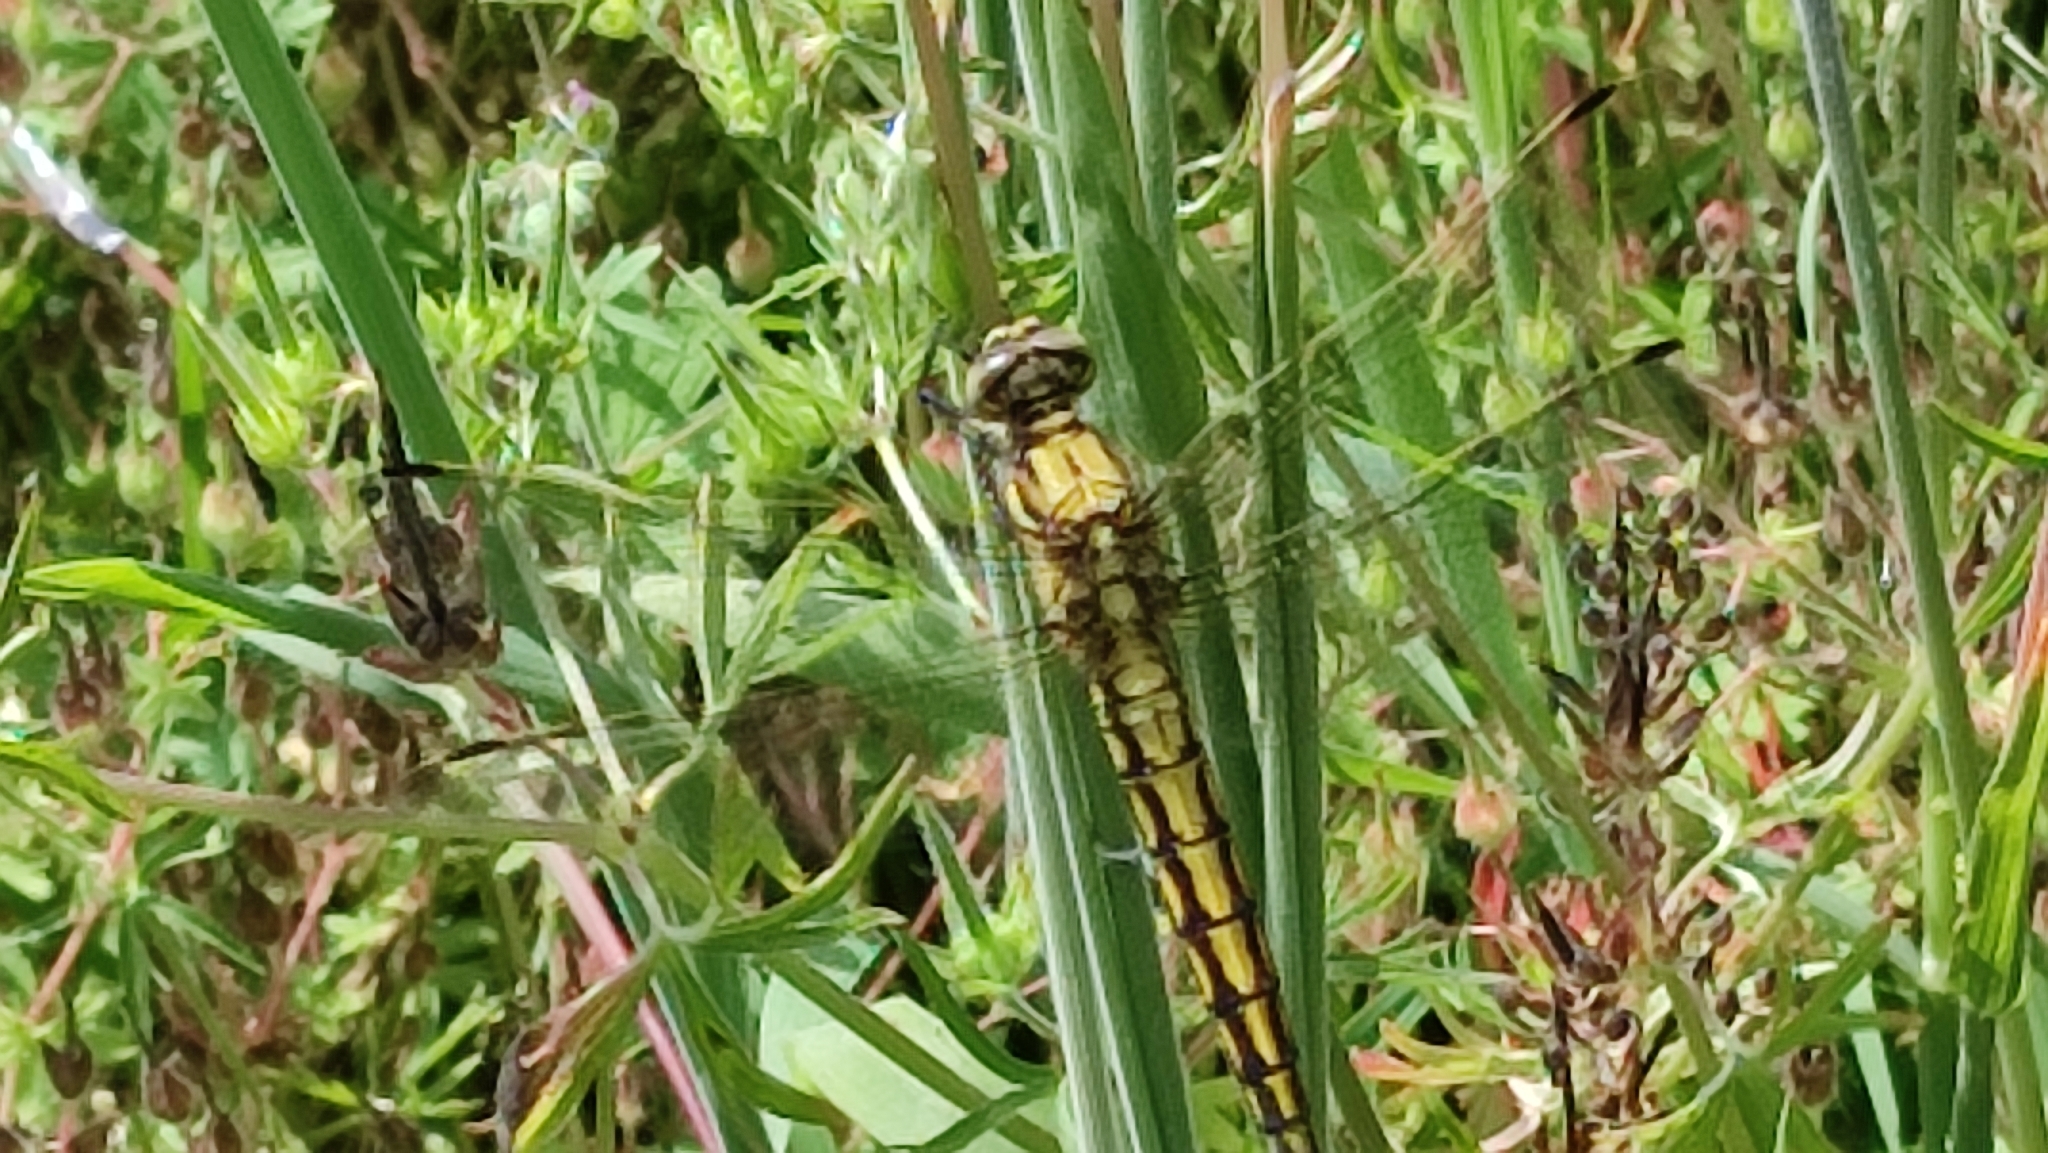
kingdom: Animalia
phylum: Arthropoda
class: Insecta
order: Odonata
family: Libellulidae
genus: Orthetrum
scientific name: Orthetrum cancellatum
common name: Black-tailed skimmer
